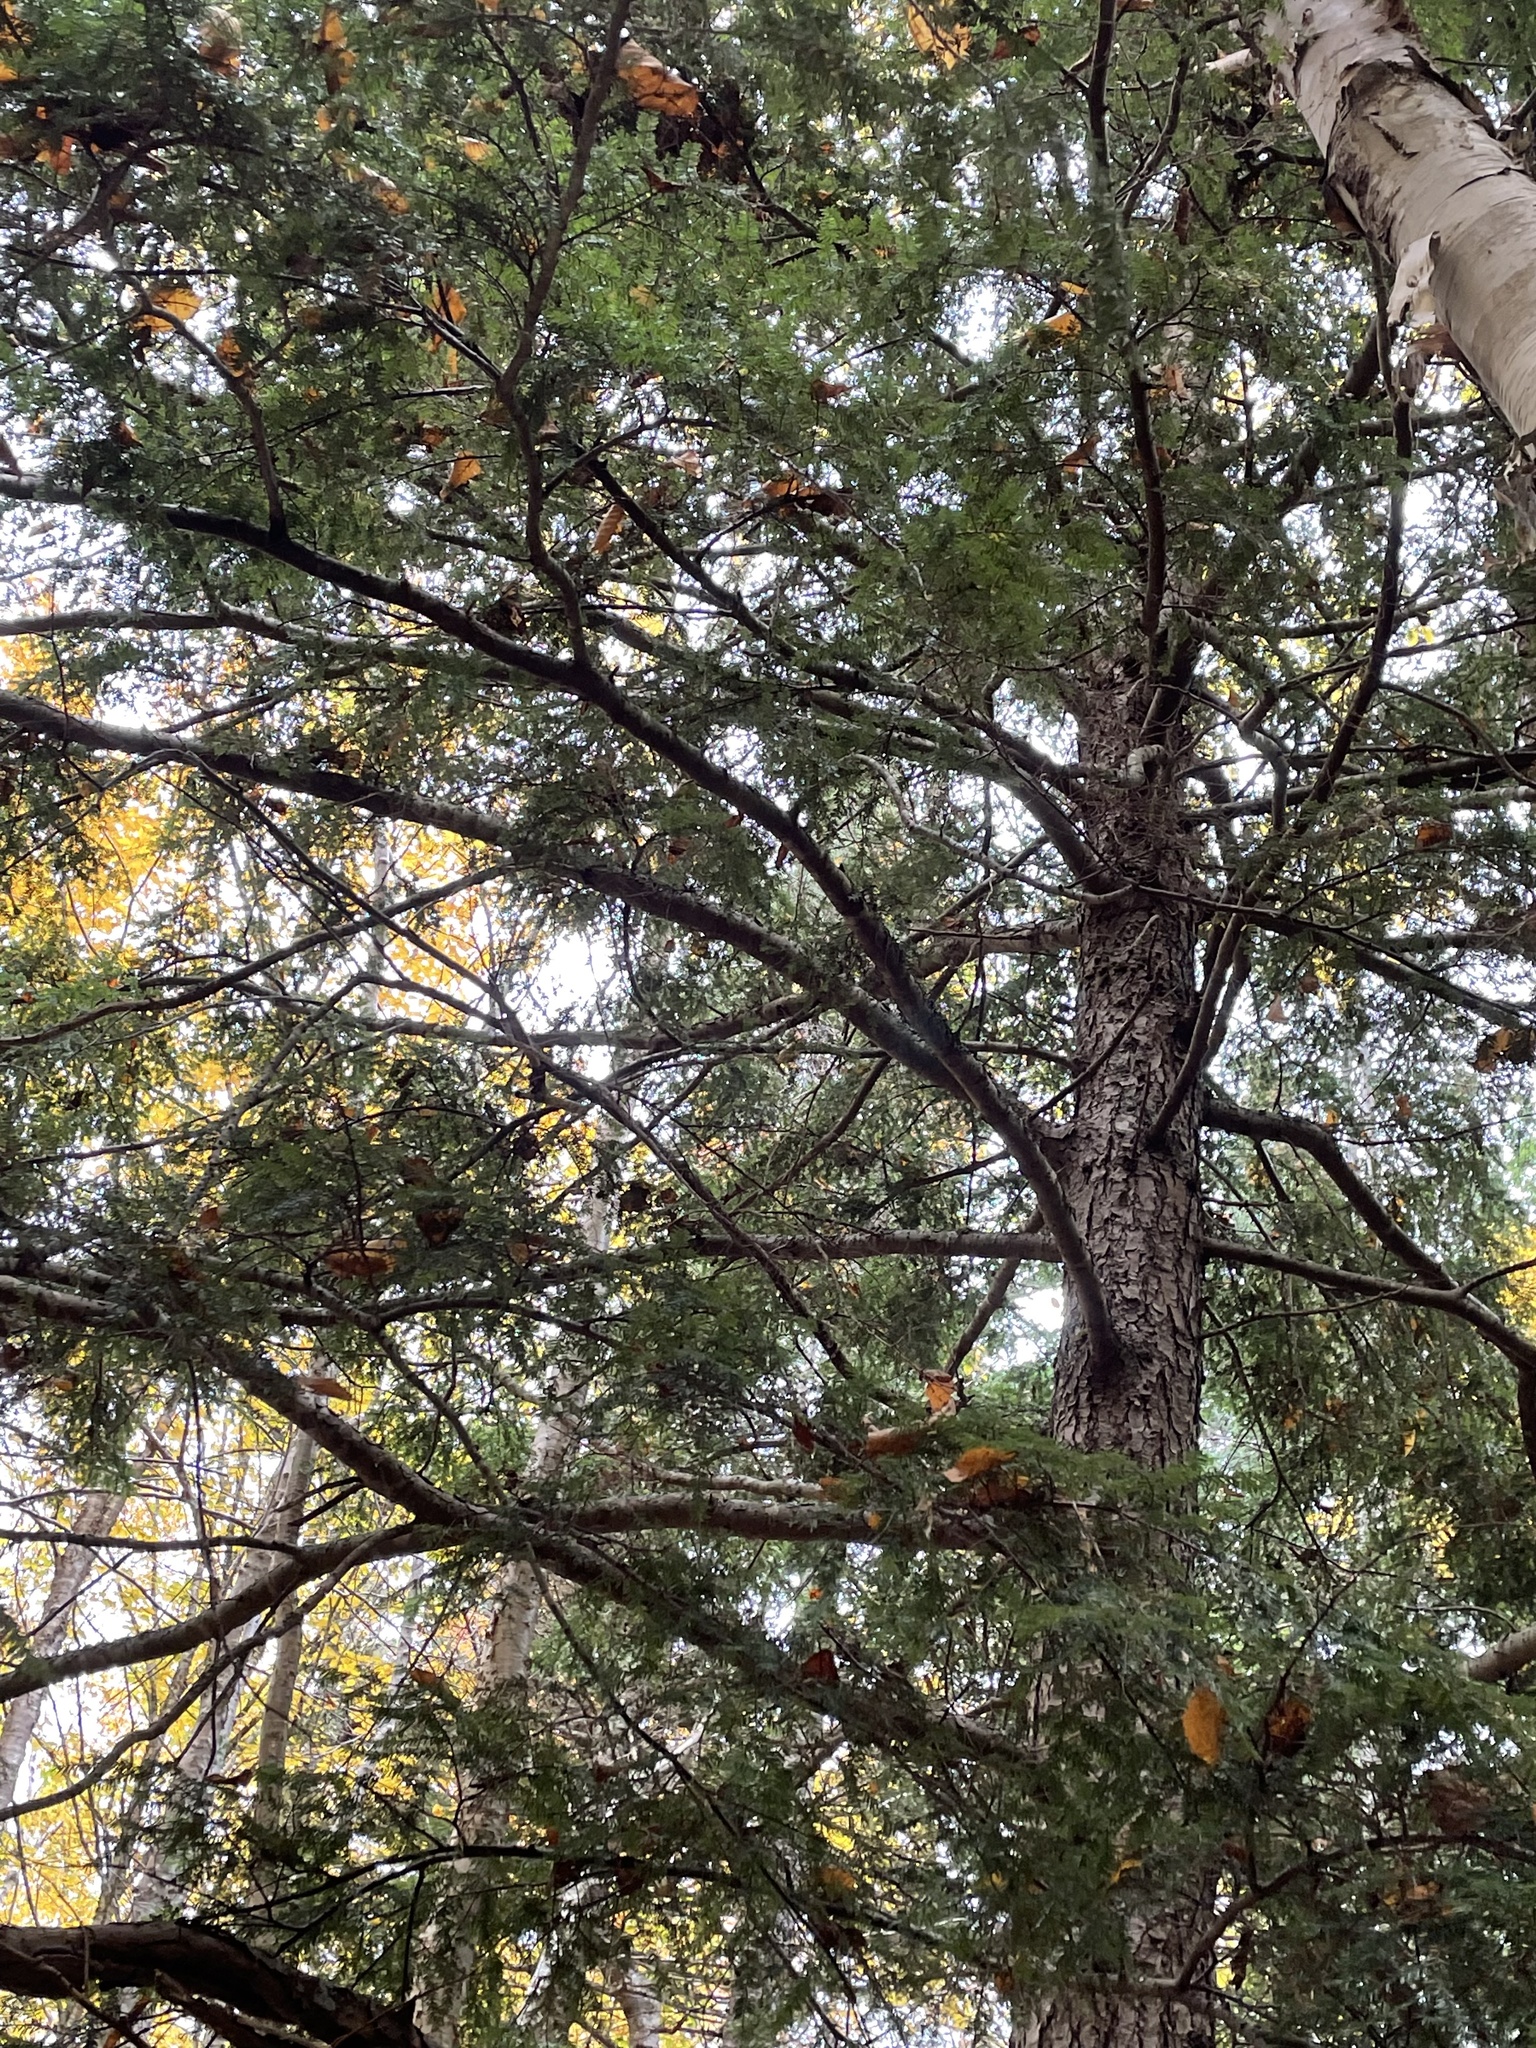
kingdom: Plantae
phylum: Tracheophyta
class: Pinopsida
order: Pinales
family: Pinaceae
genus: Tsuga
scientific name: Tsuga canadensis
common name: Eastern hemlock
